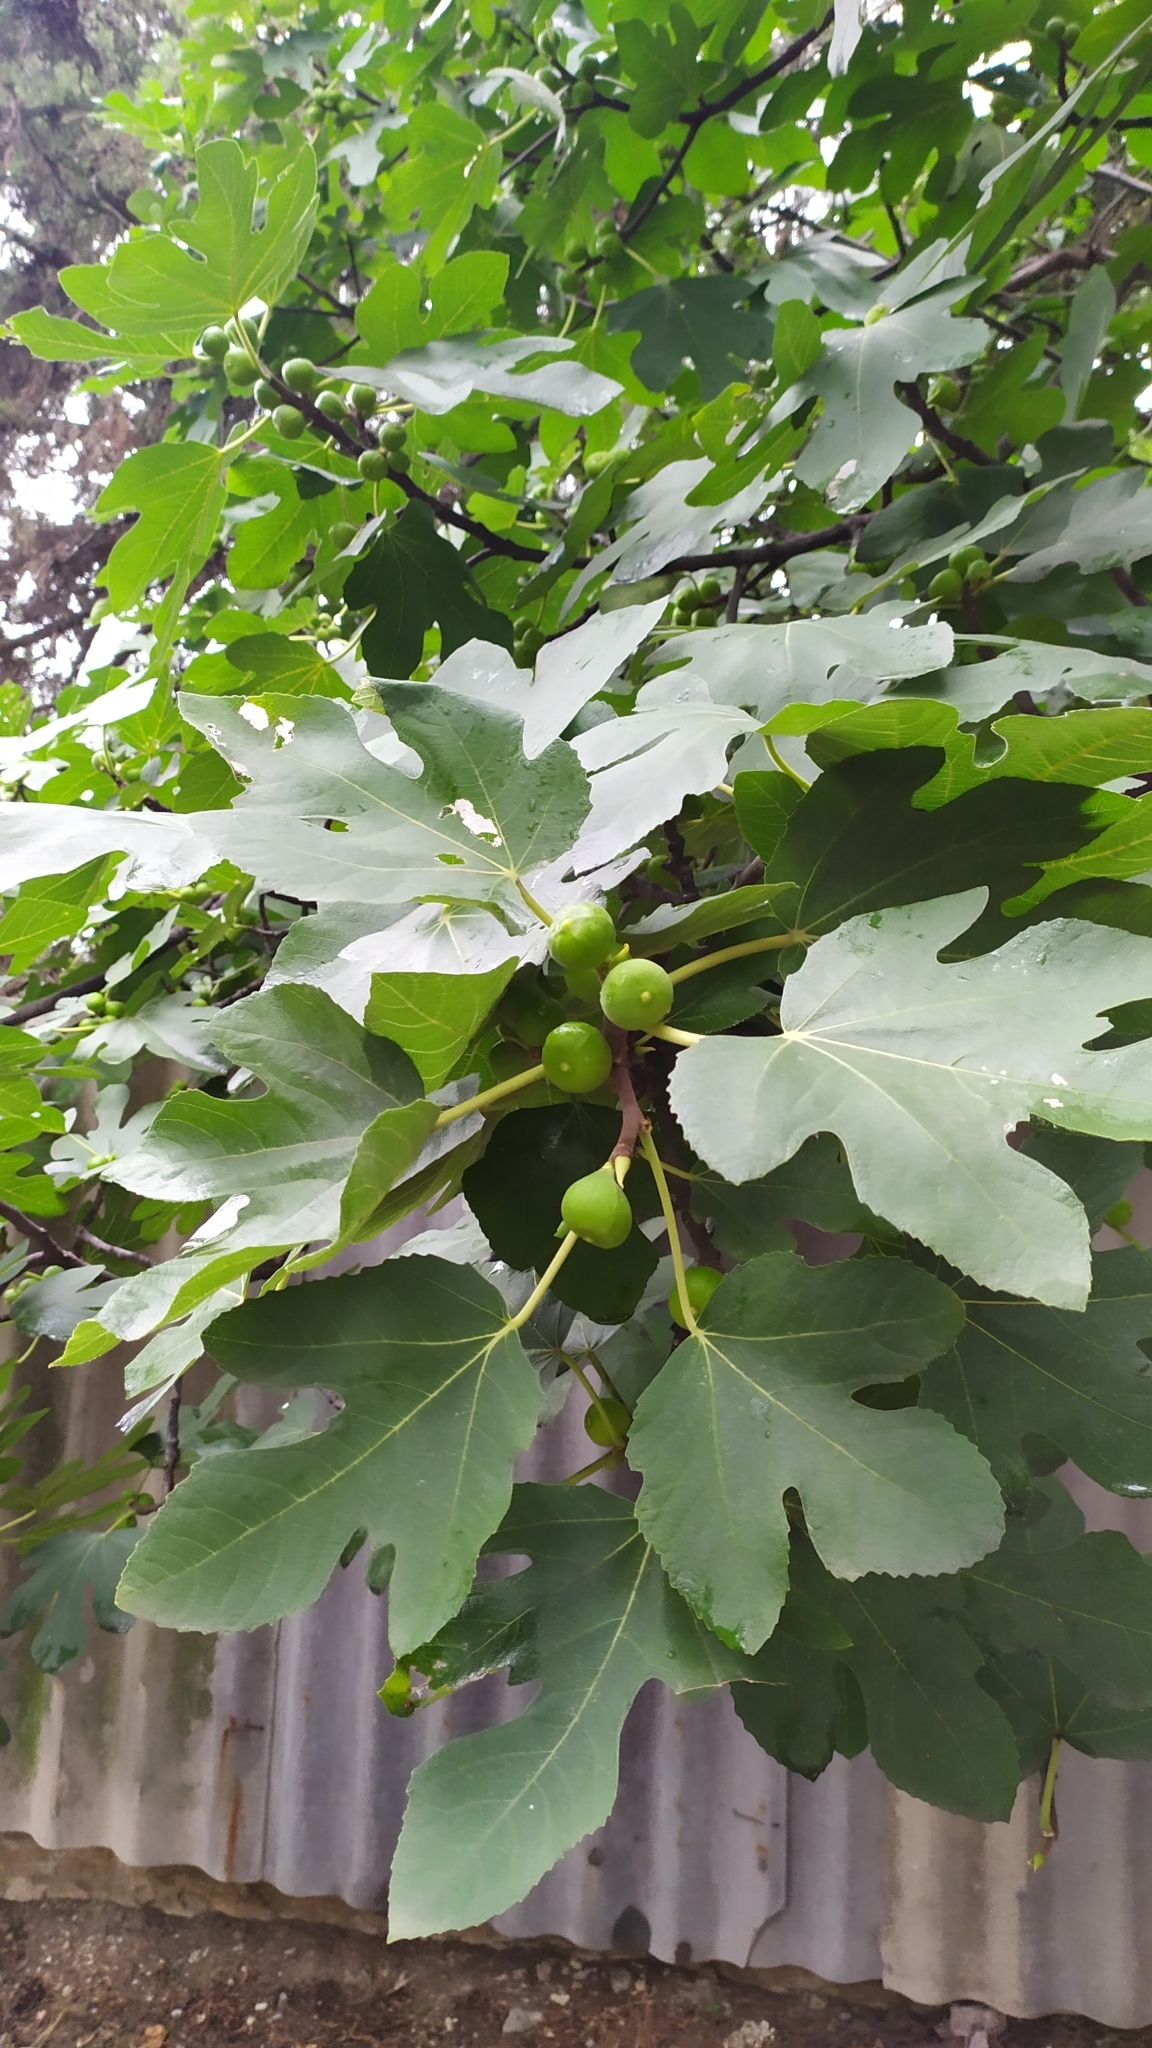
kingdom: Plantae
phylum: Tracheophyta
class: Magnoliopsida
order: Rosales
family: Moraceae
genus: Ficus
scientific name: Ficus carica
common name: Fig
